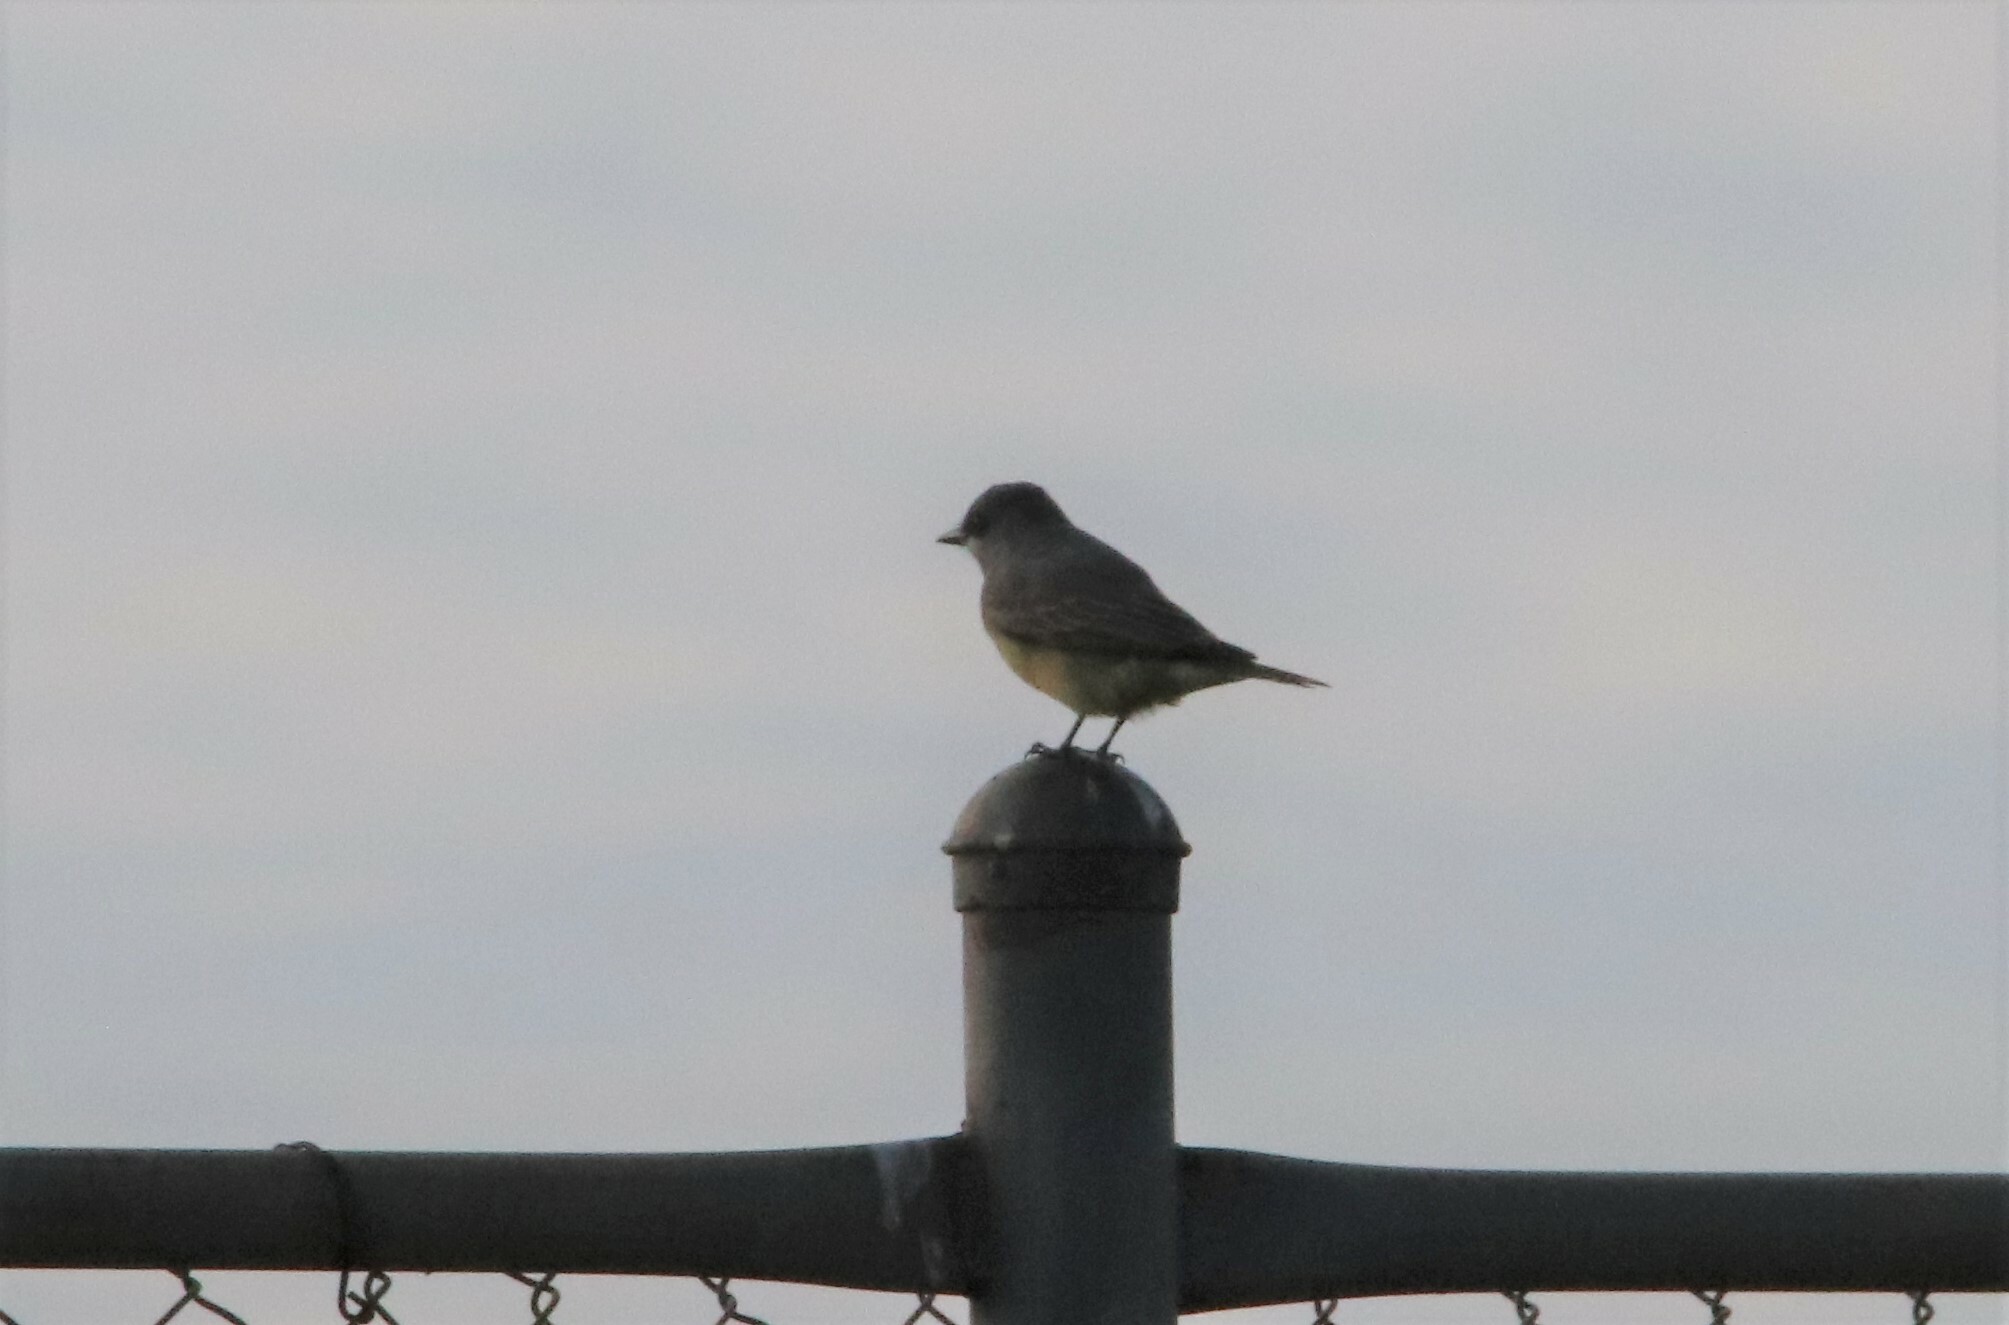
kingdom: Animalia
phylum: Chordata
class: Aves
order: Passeriformes
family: Tyrannidae
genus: Tyrannus
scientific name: Tyrannus vociferans
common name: Cassin's kingbird
